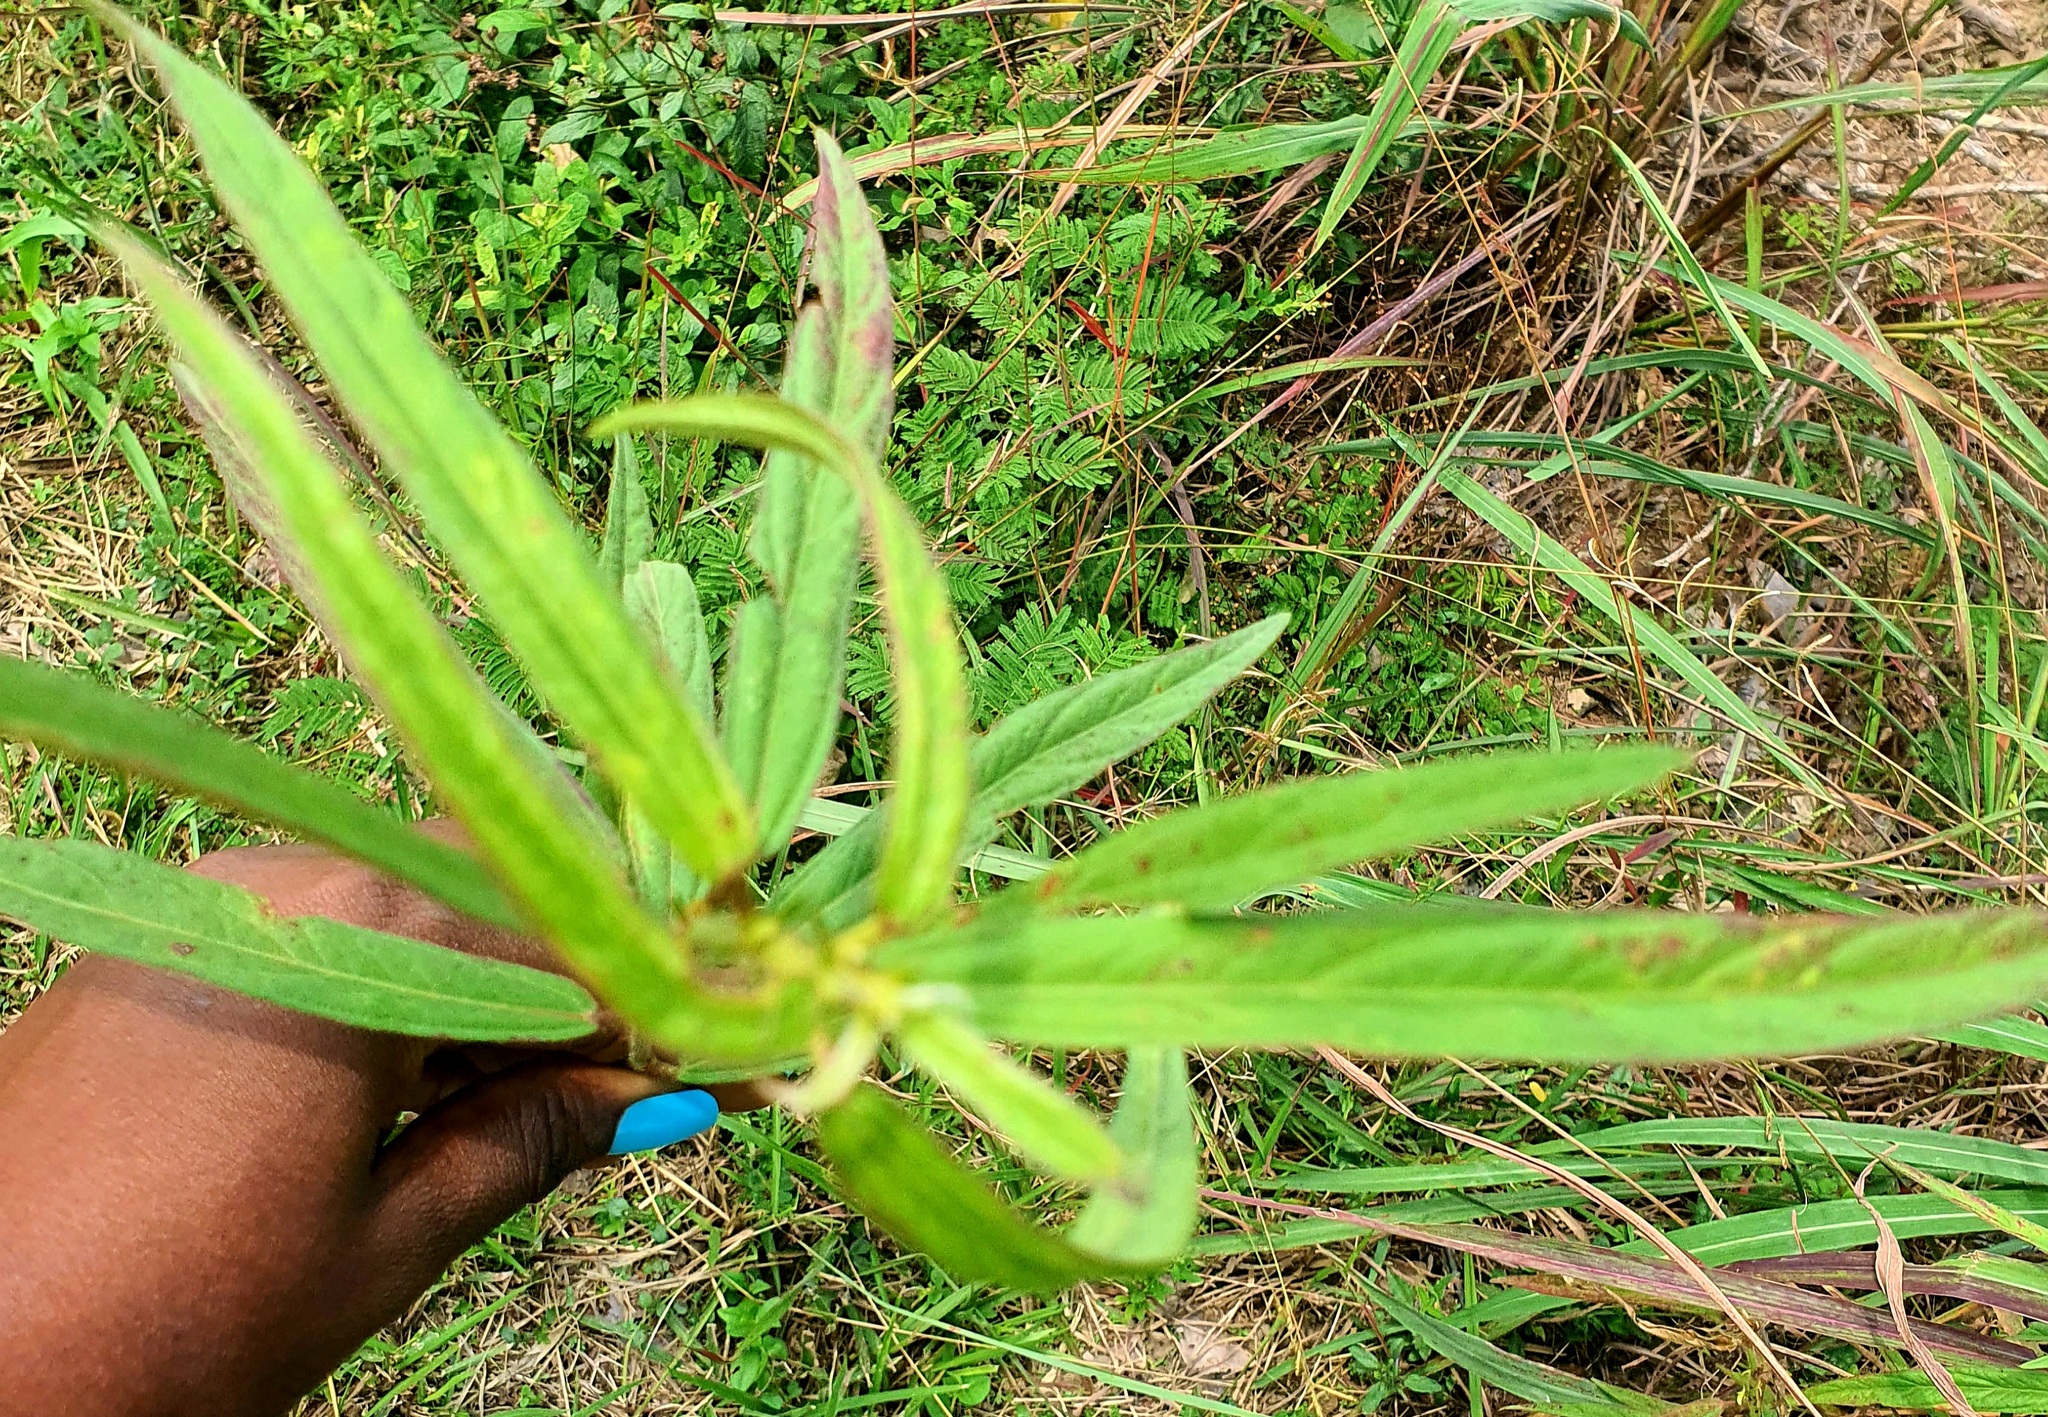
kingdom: Plantae
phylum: Tracheophyta
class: Magnoliopsida
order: Lamiales
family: Pedaliaceae
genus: Sesamum
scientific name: Sesamum indicum
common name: Sesame
